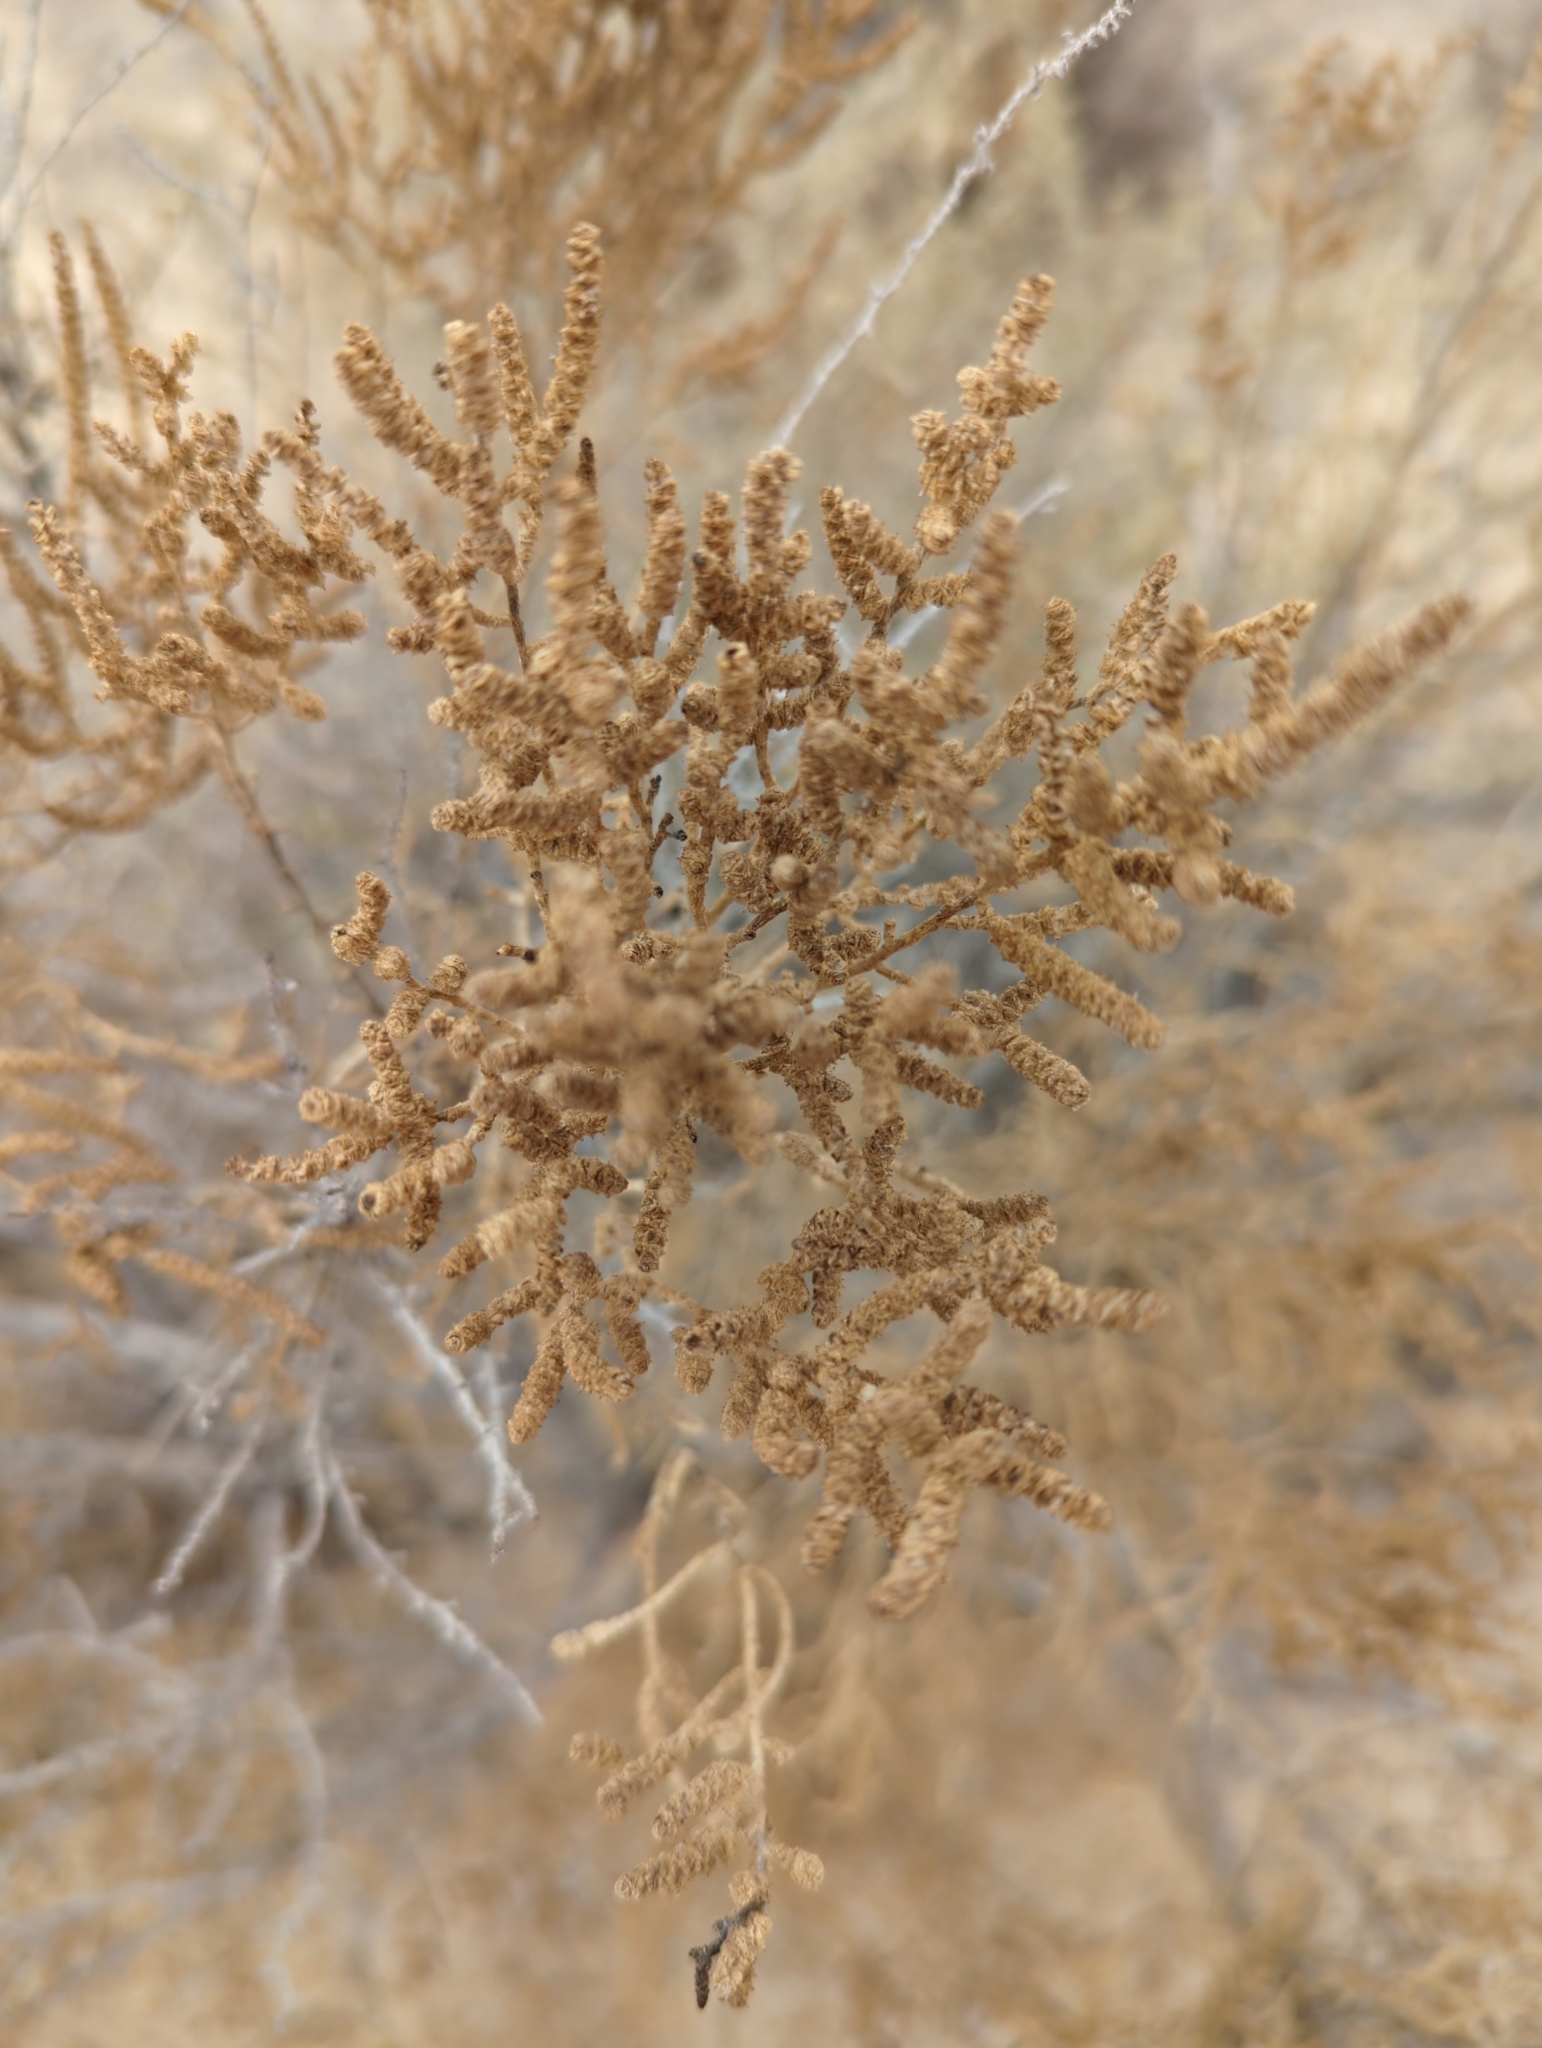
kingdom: Plantae
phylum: Tracheophyta
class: Magnoliopsida
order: Caryophyllales
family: Amaranthaceae
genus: Allenrolfea
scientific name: Allenrolfea occidentalis
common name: Iodine-bush
